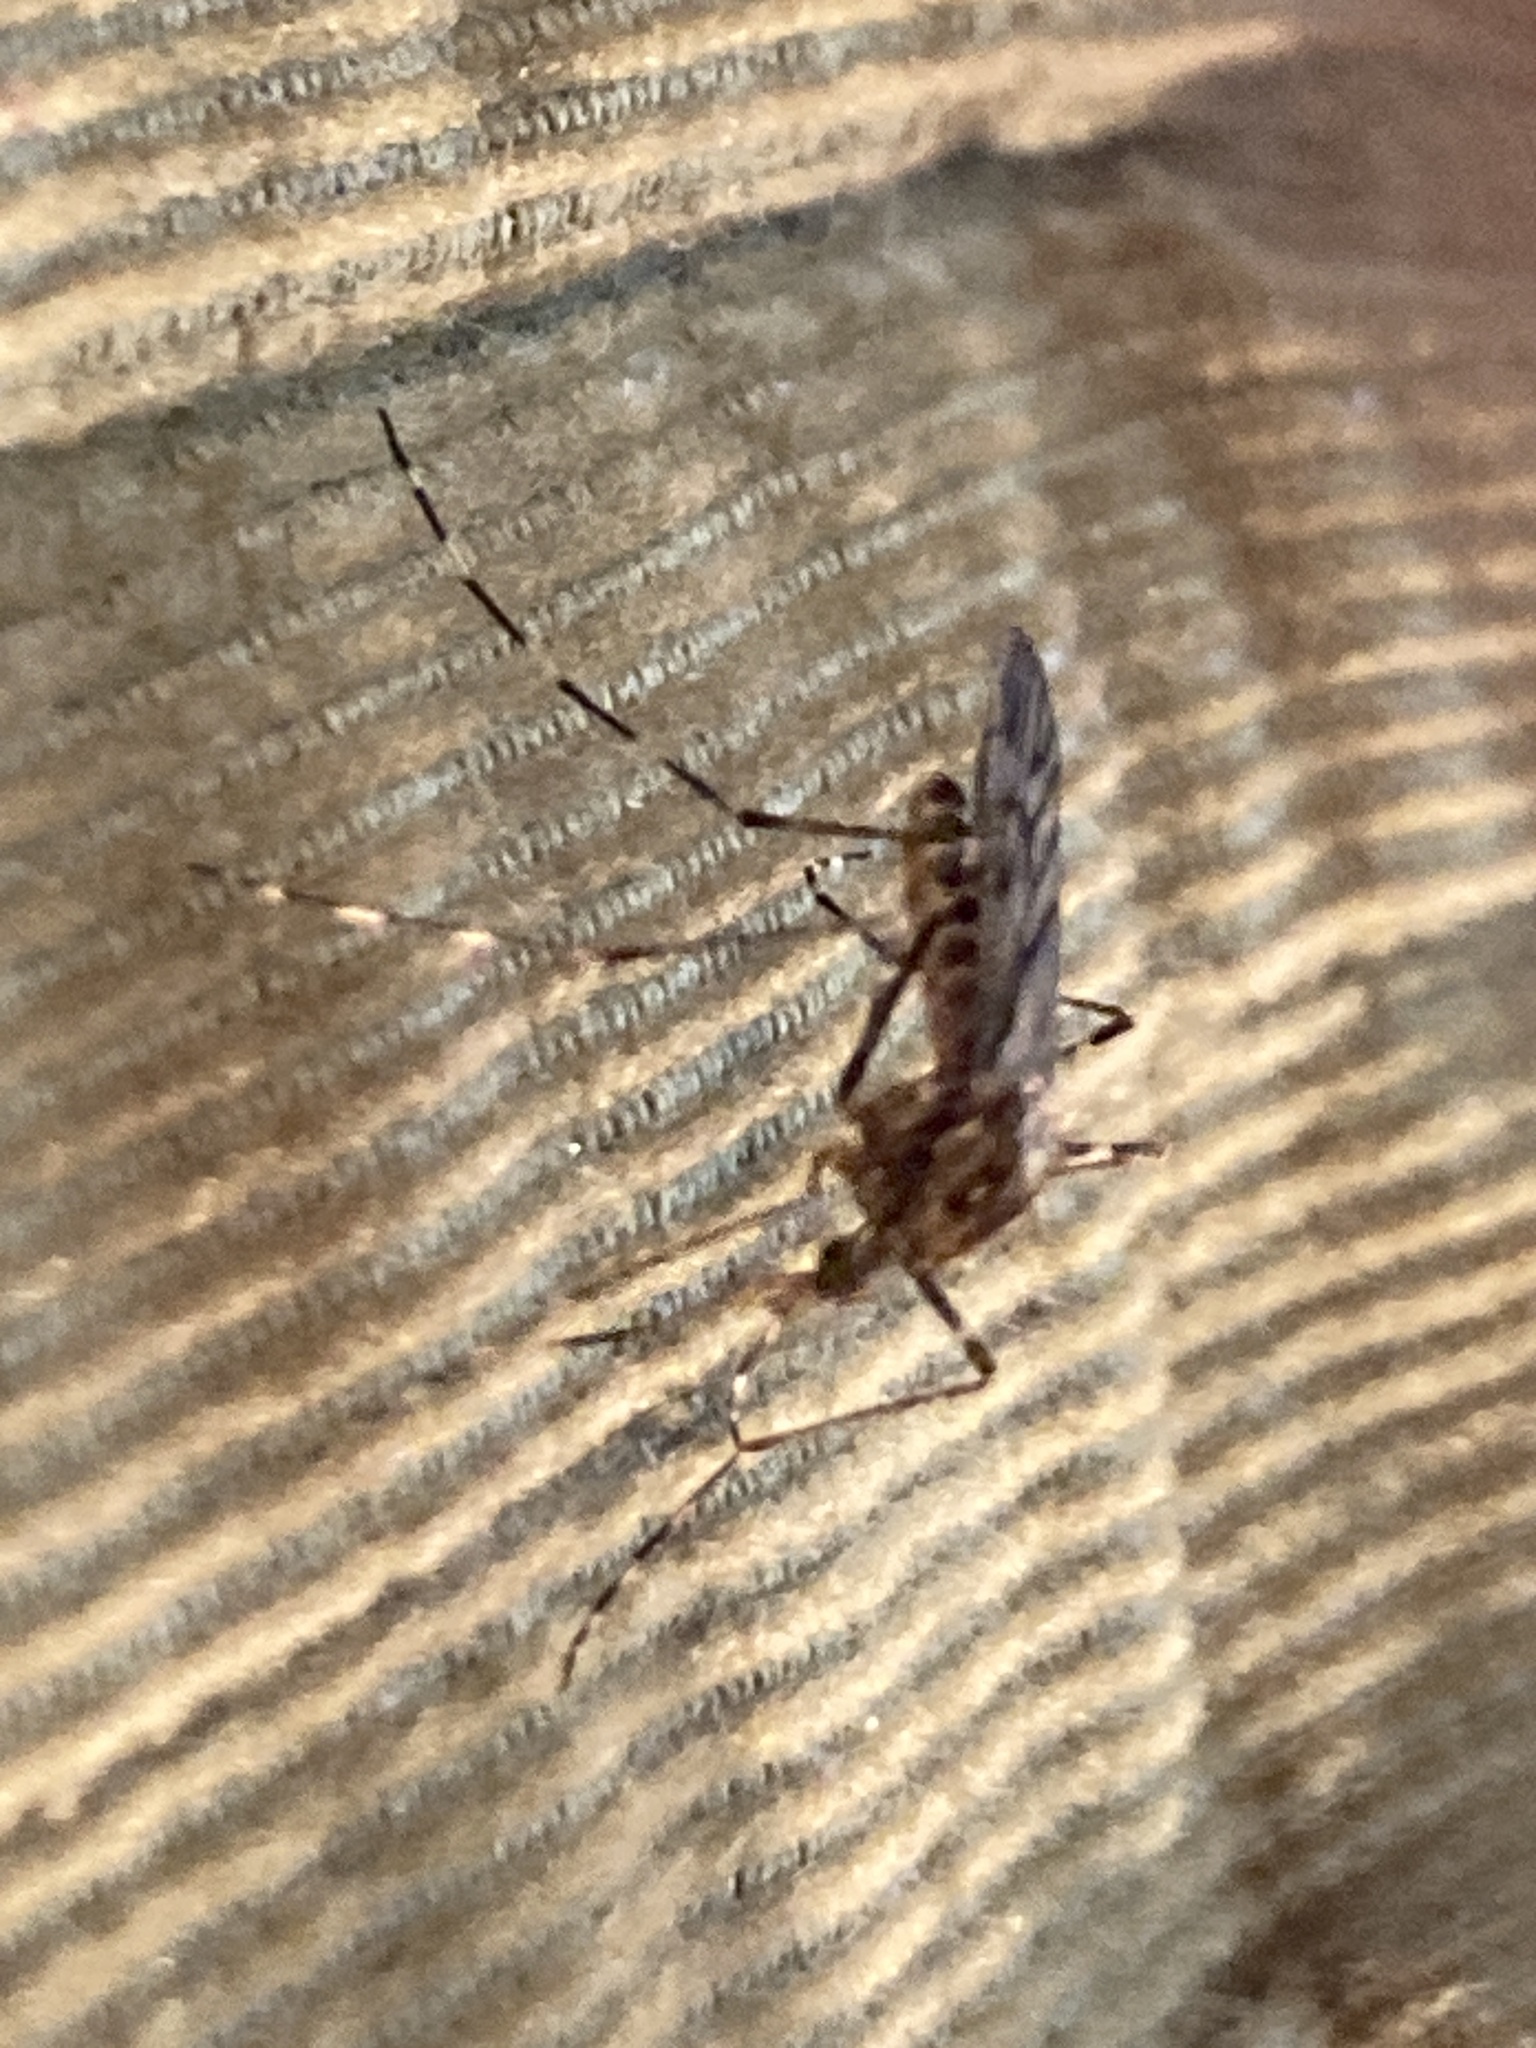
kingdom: Animalia
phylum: Arthropoda
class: Insecta
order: Diptera
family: Culicidae
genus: Culiseta
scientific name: Culiseta annulata
